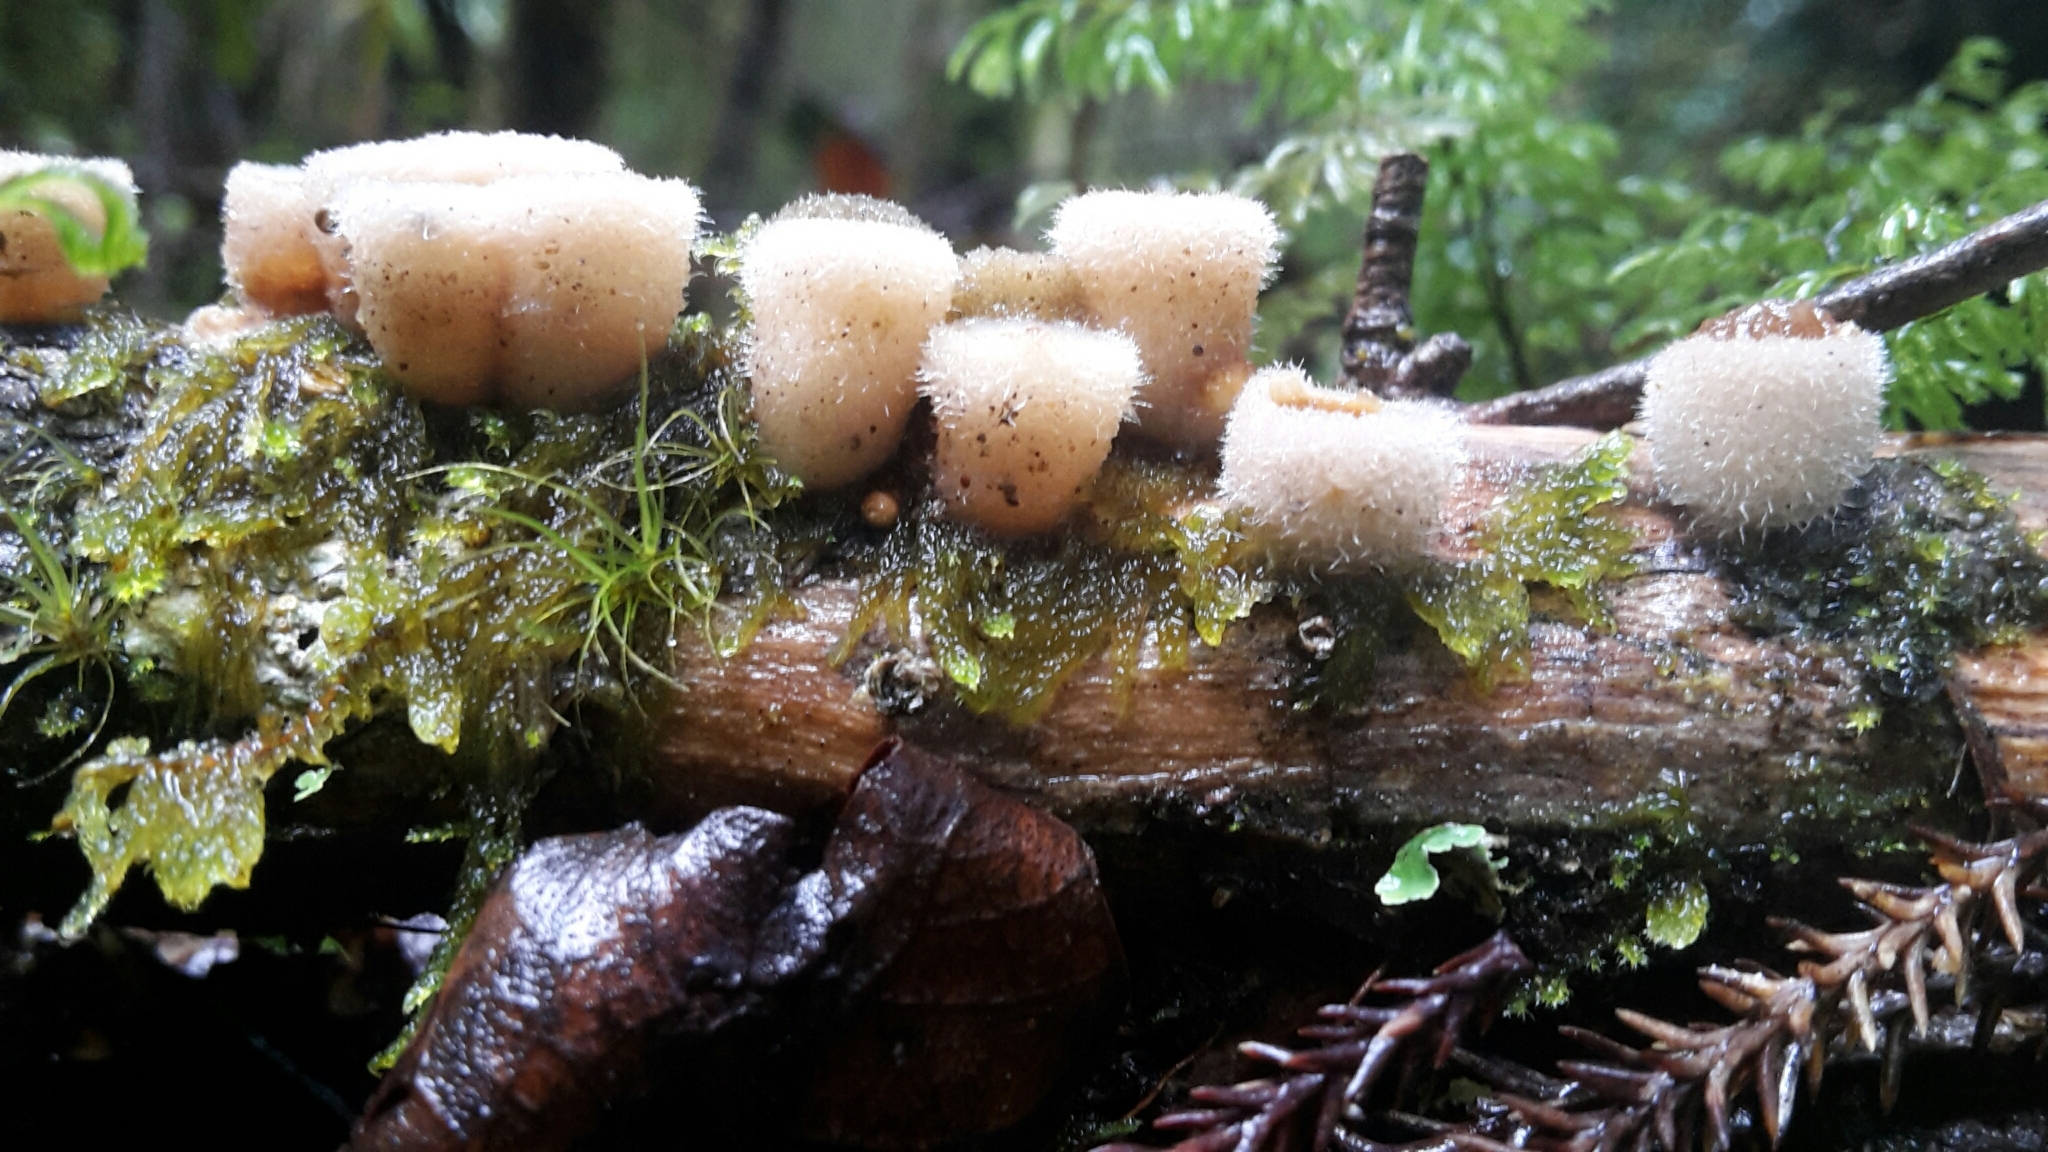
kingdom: Fungi
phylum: Basidiomycota
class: Agaricomycetes
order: Agaricales
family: Agaricaceae
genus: Nidula
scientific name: Nidula niveotomentosa
